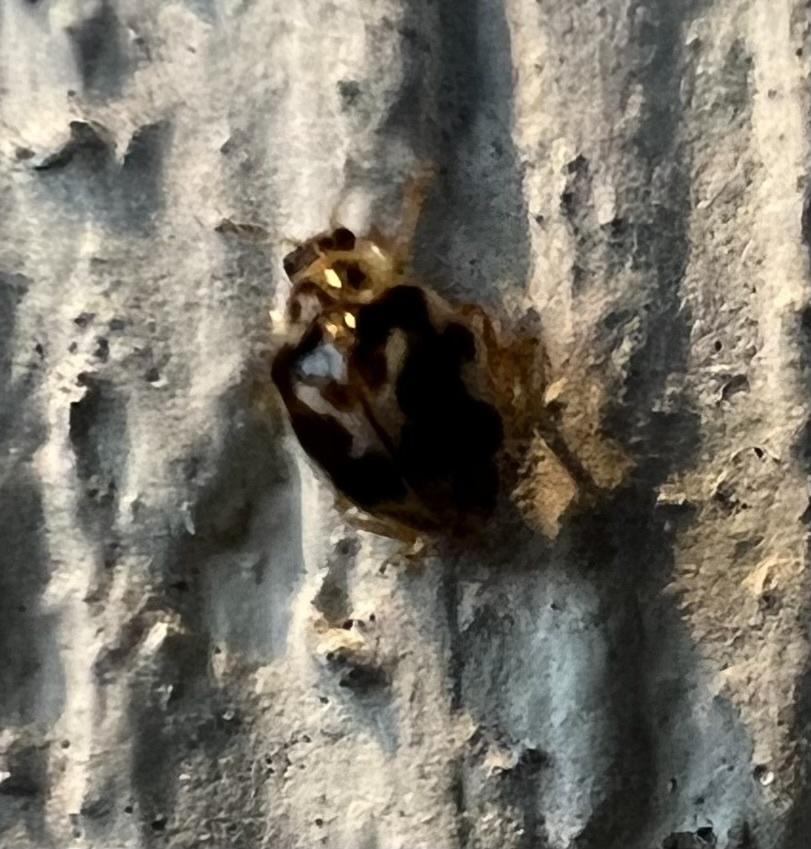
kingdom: Animalia
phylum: Arthropoda
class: Insecta
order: Coleoptera
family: Coccinellidae
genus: Psyllobora
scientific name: Psyllobora vigintimaculata
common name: Ladybird beetle
